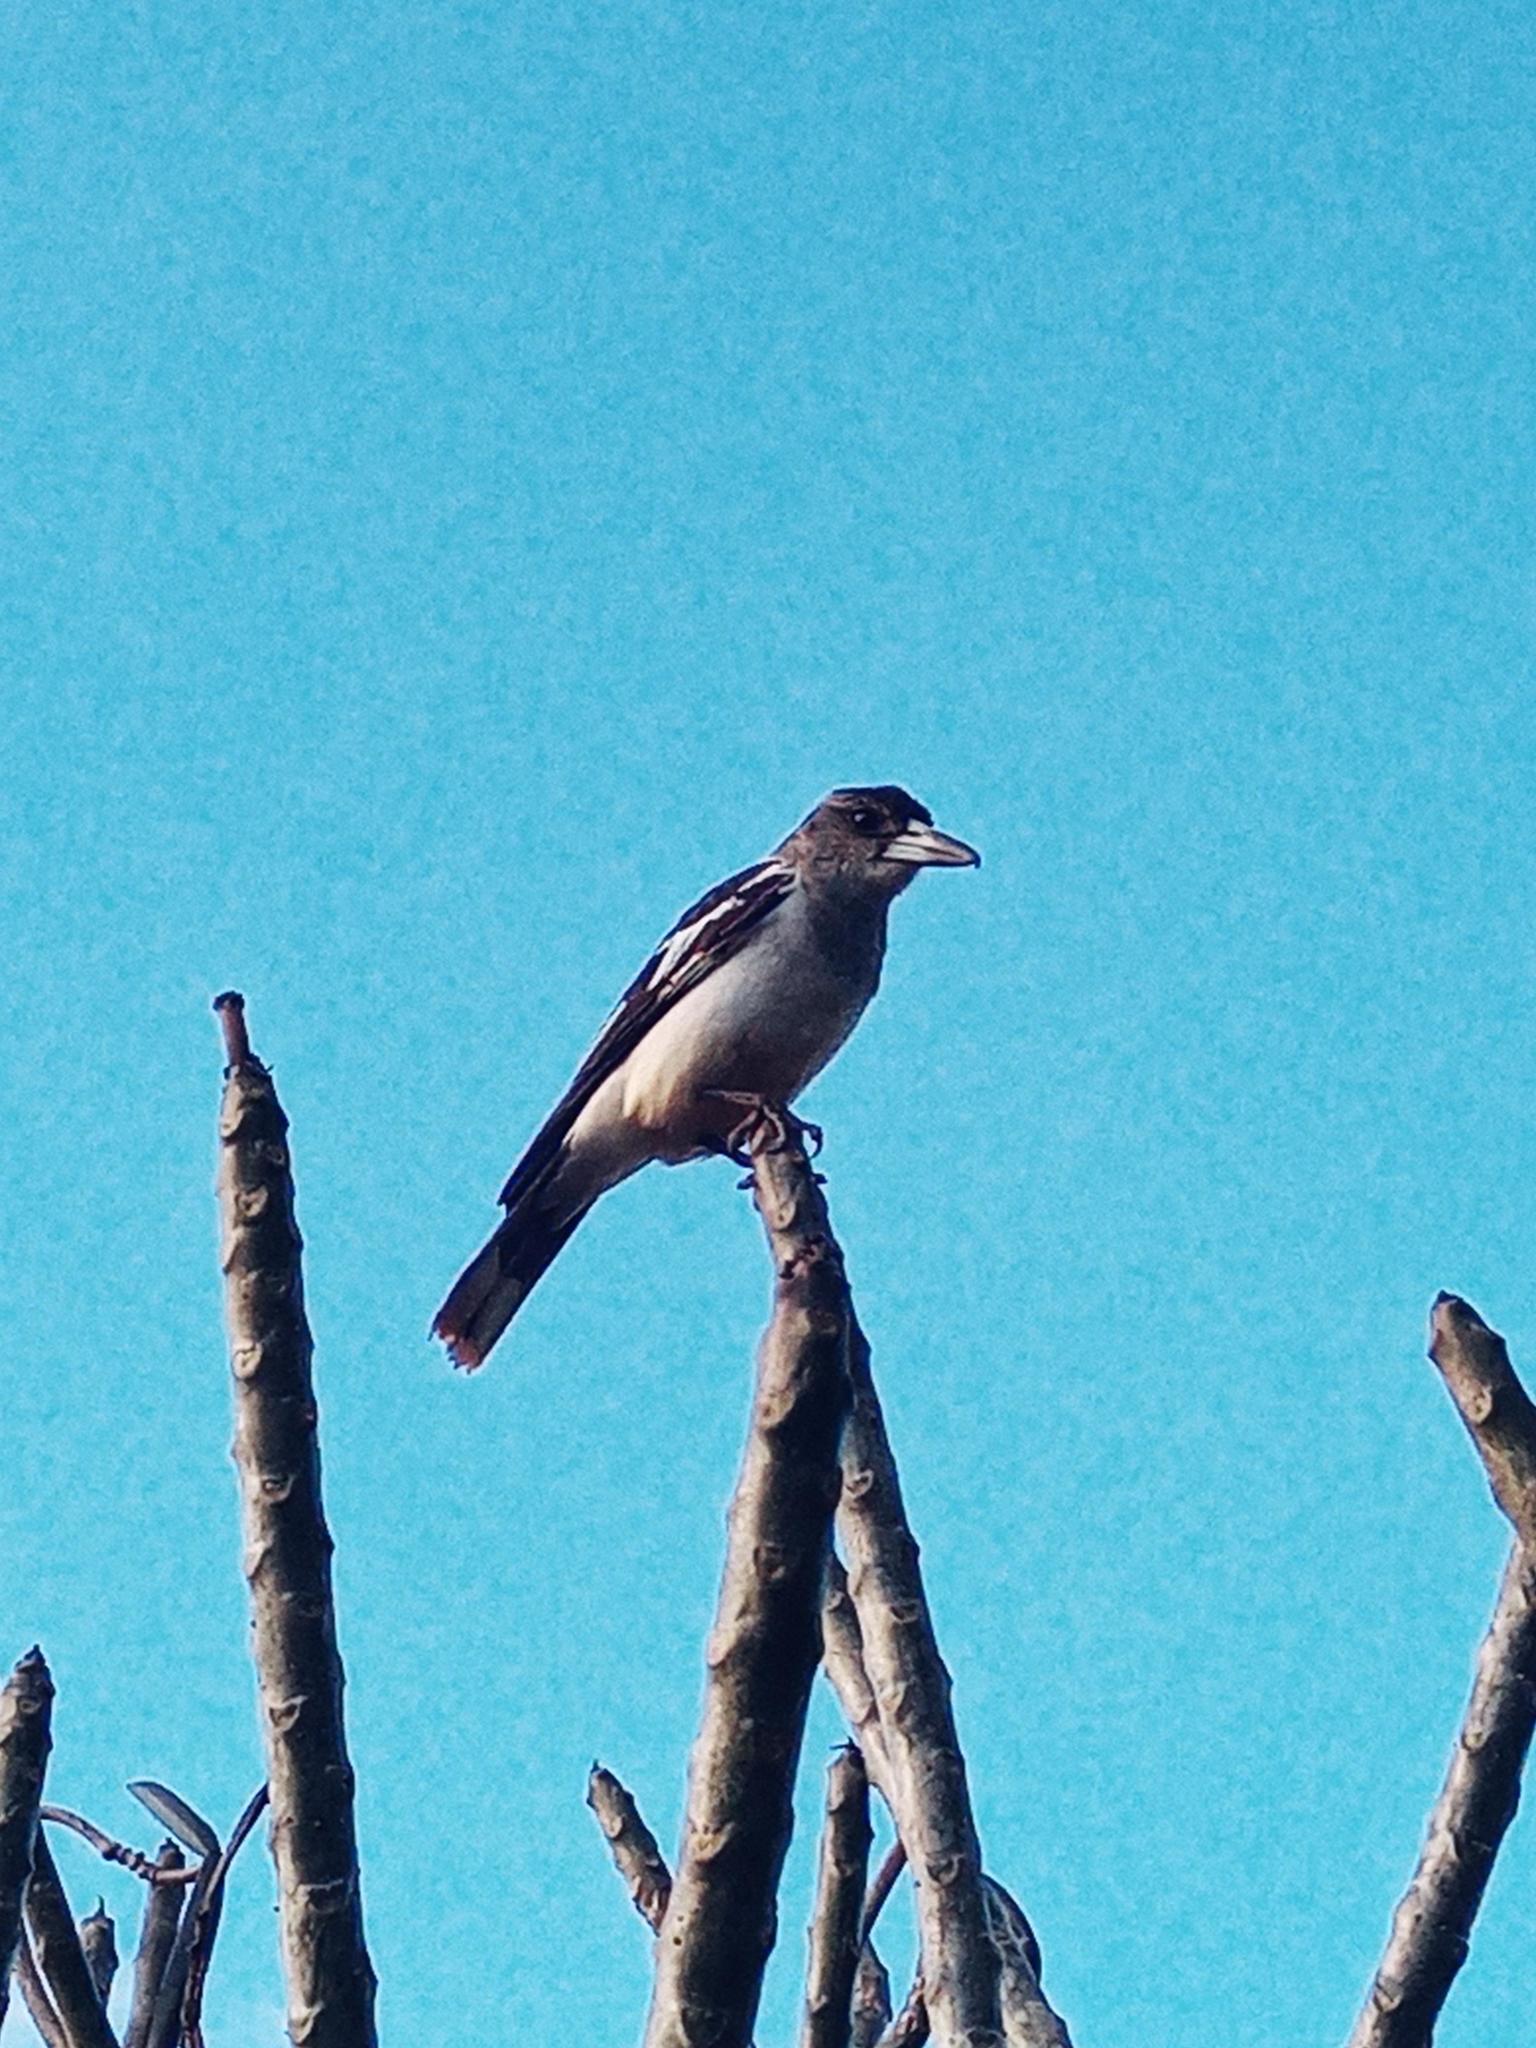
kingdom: Animalia
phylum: Chordata
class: Aves
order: Passeriformes
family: Cracticidae
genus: Cracticus
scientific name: Cracticus nigrogularis
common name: Pied butcherbird
